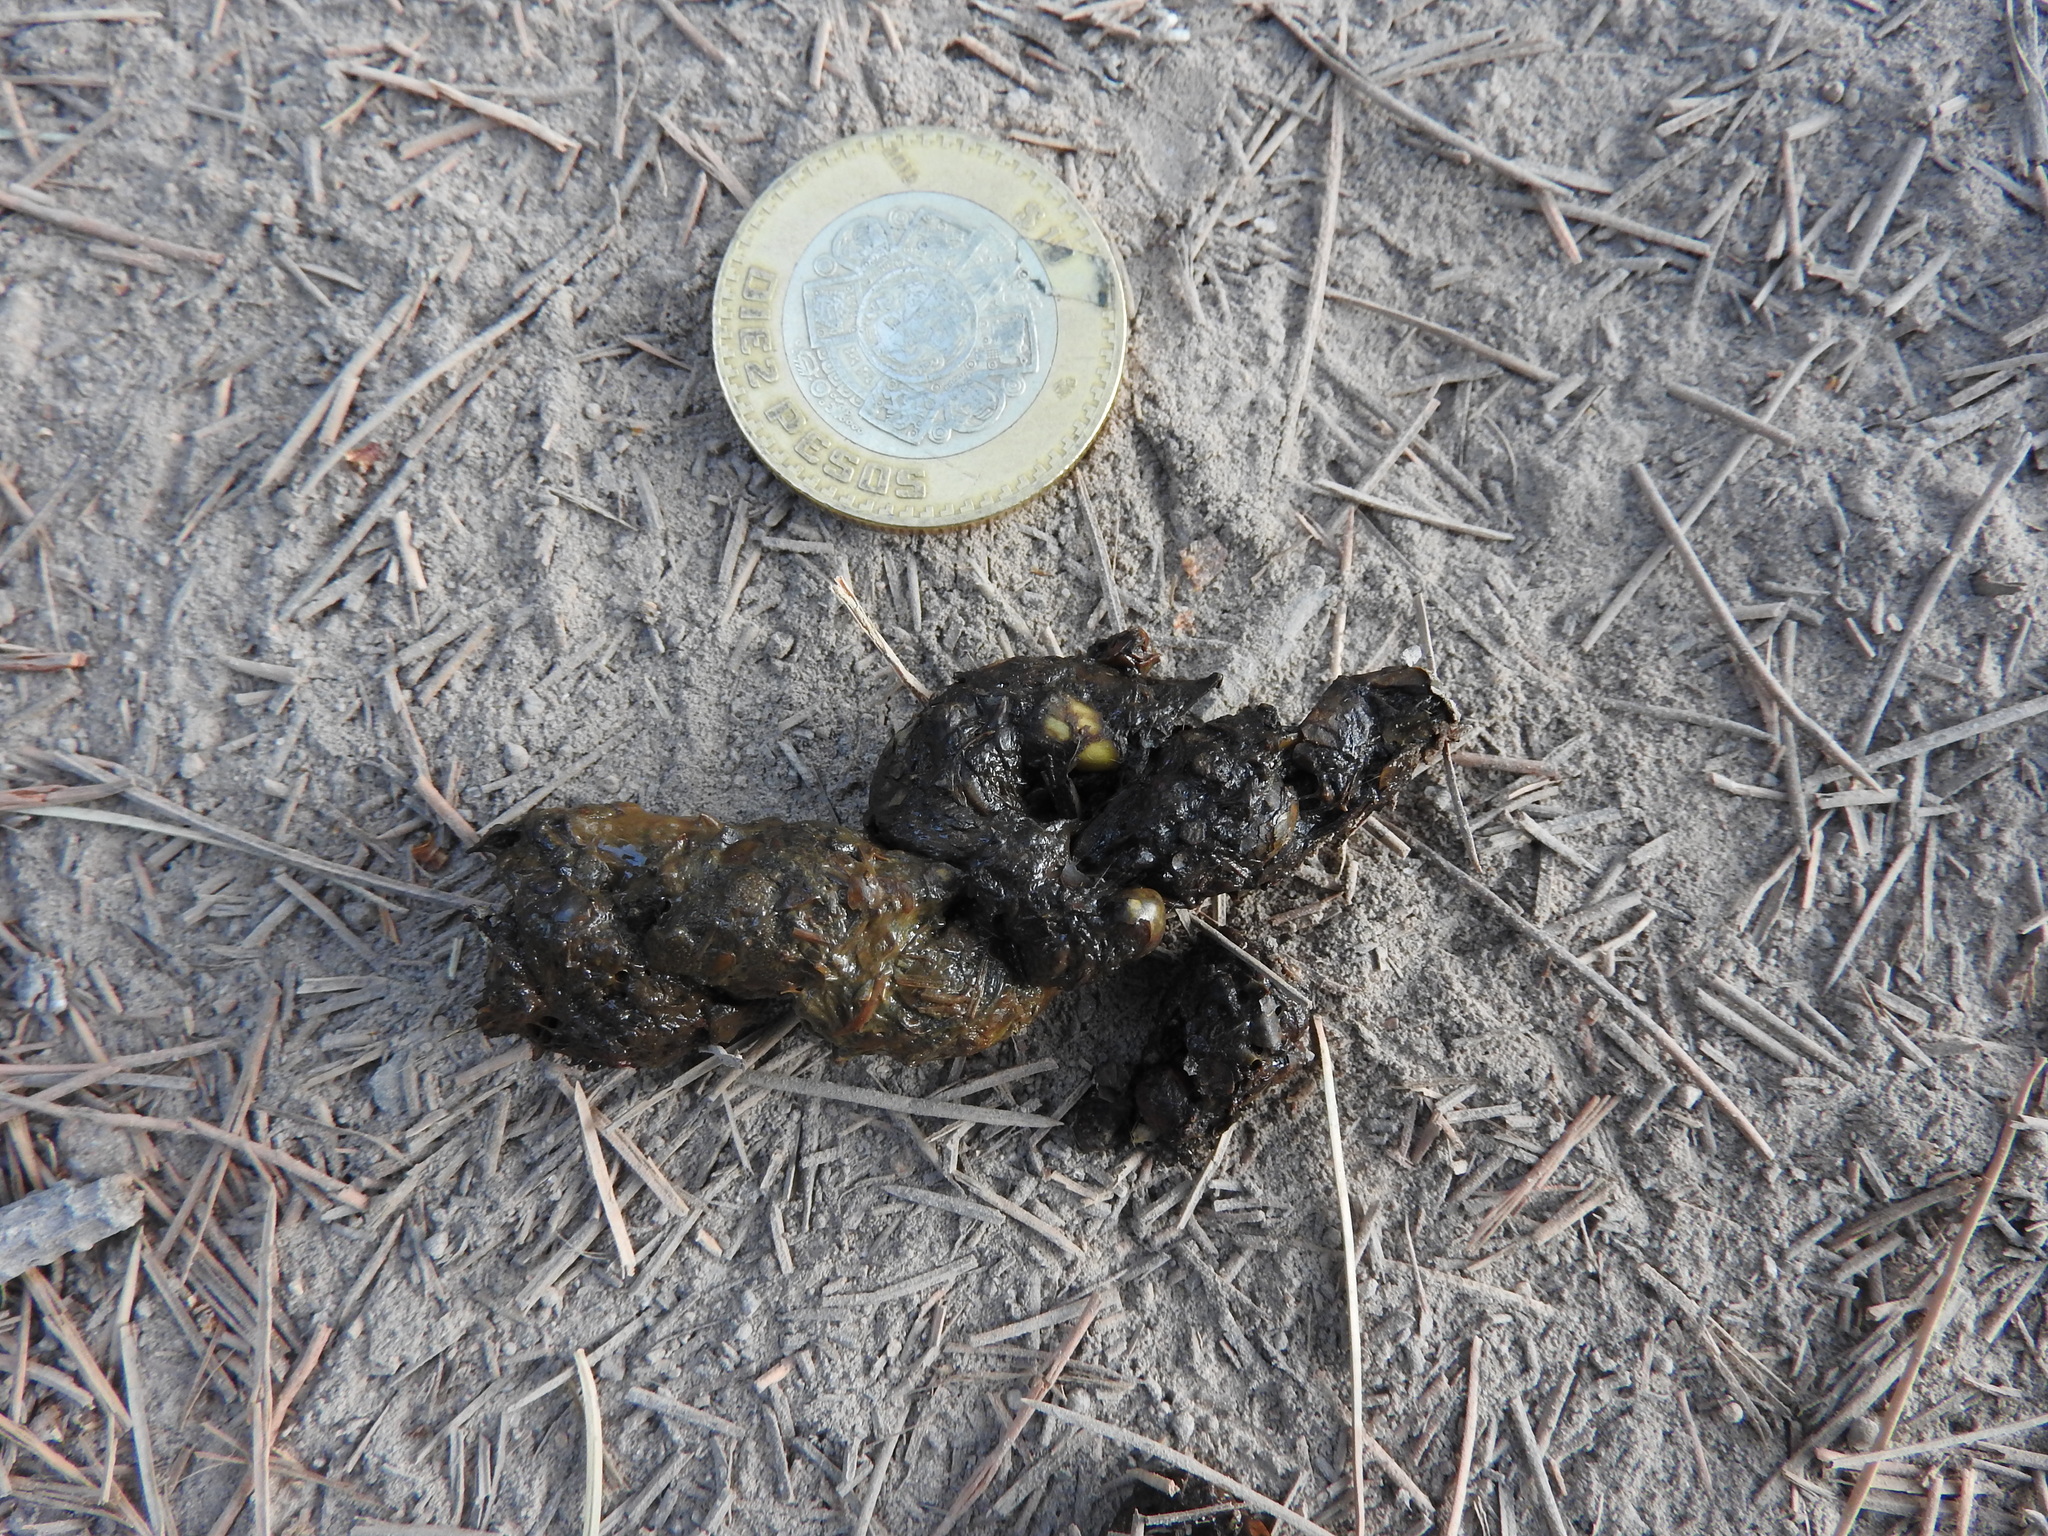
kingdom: Animalia
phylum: Chordata
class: Mammalia
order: Carnivora
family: Canidae
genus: Urocyon
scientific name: Urocyon cinereoargenteus
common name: Gray fox
